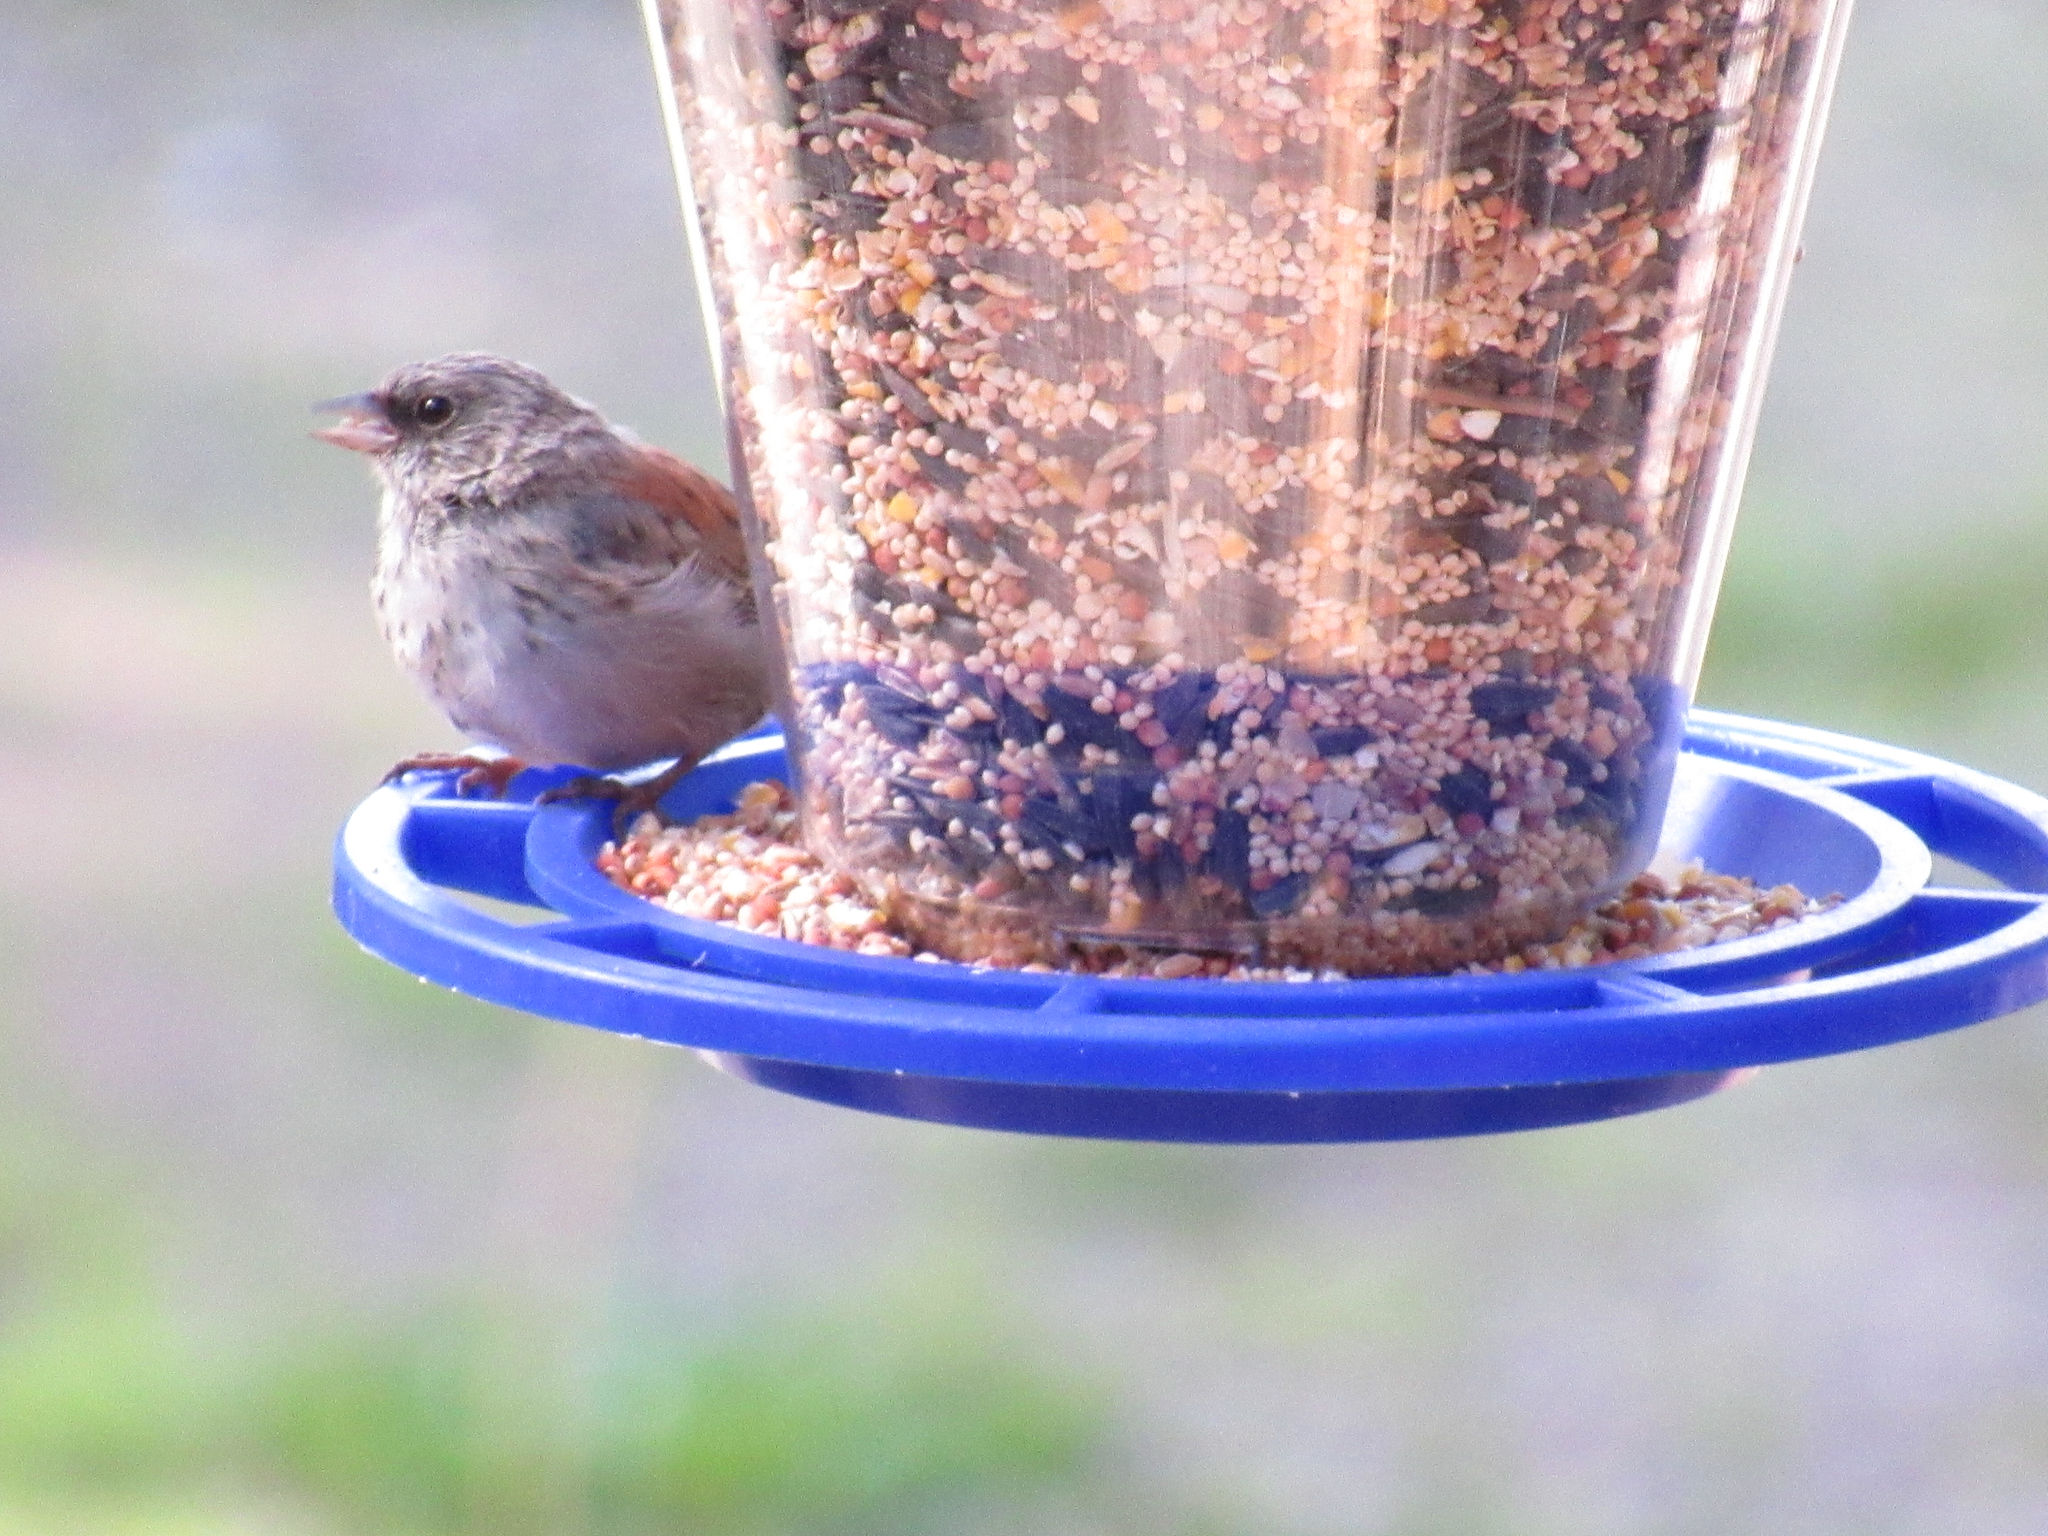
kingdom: Animalia
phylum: Chordata
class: Aves
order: Passeriformes
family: Passerellidae
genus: Junco
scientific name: Junco hyemalis
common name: Dark-eyed junco
